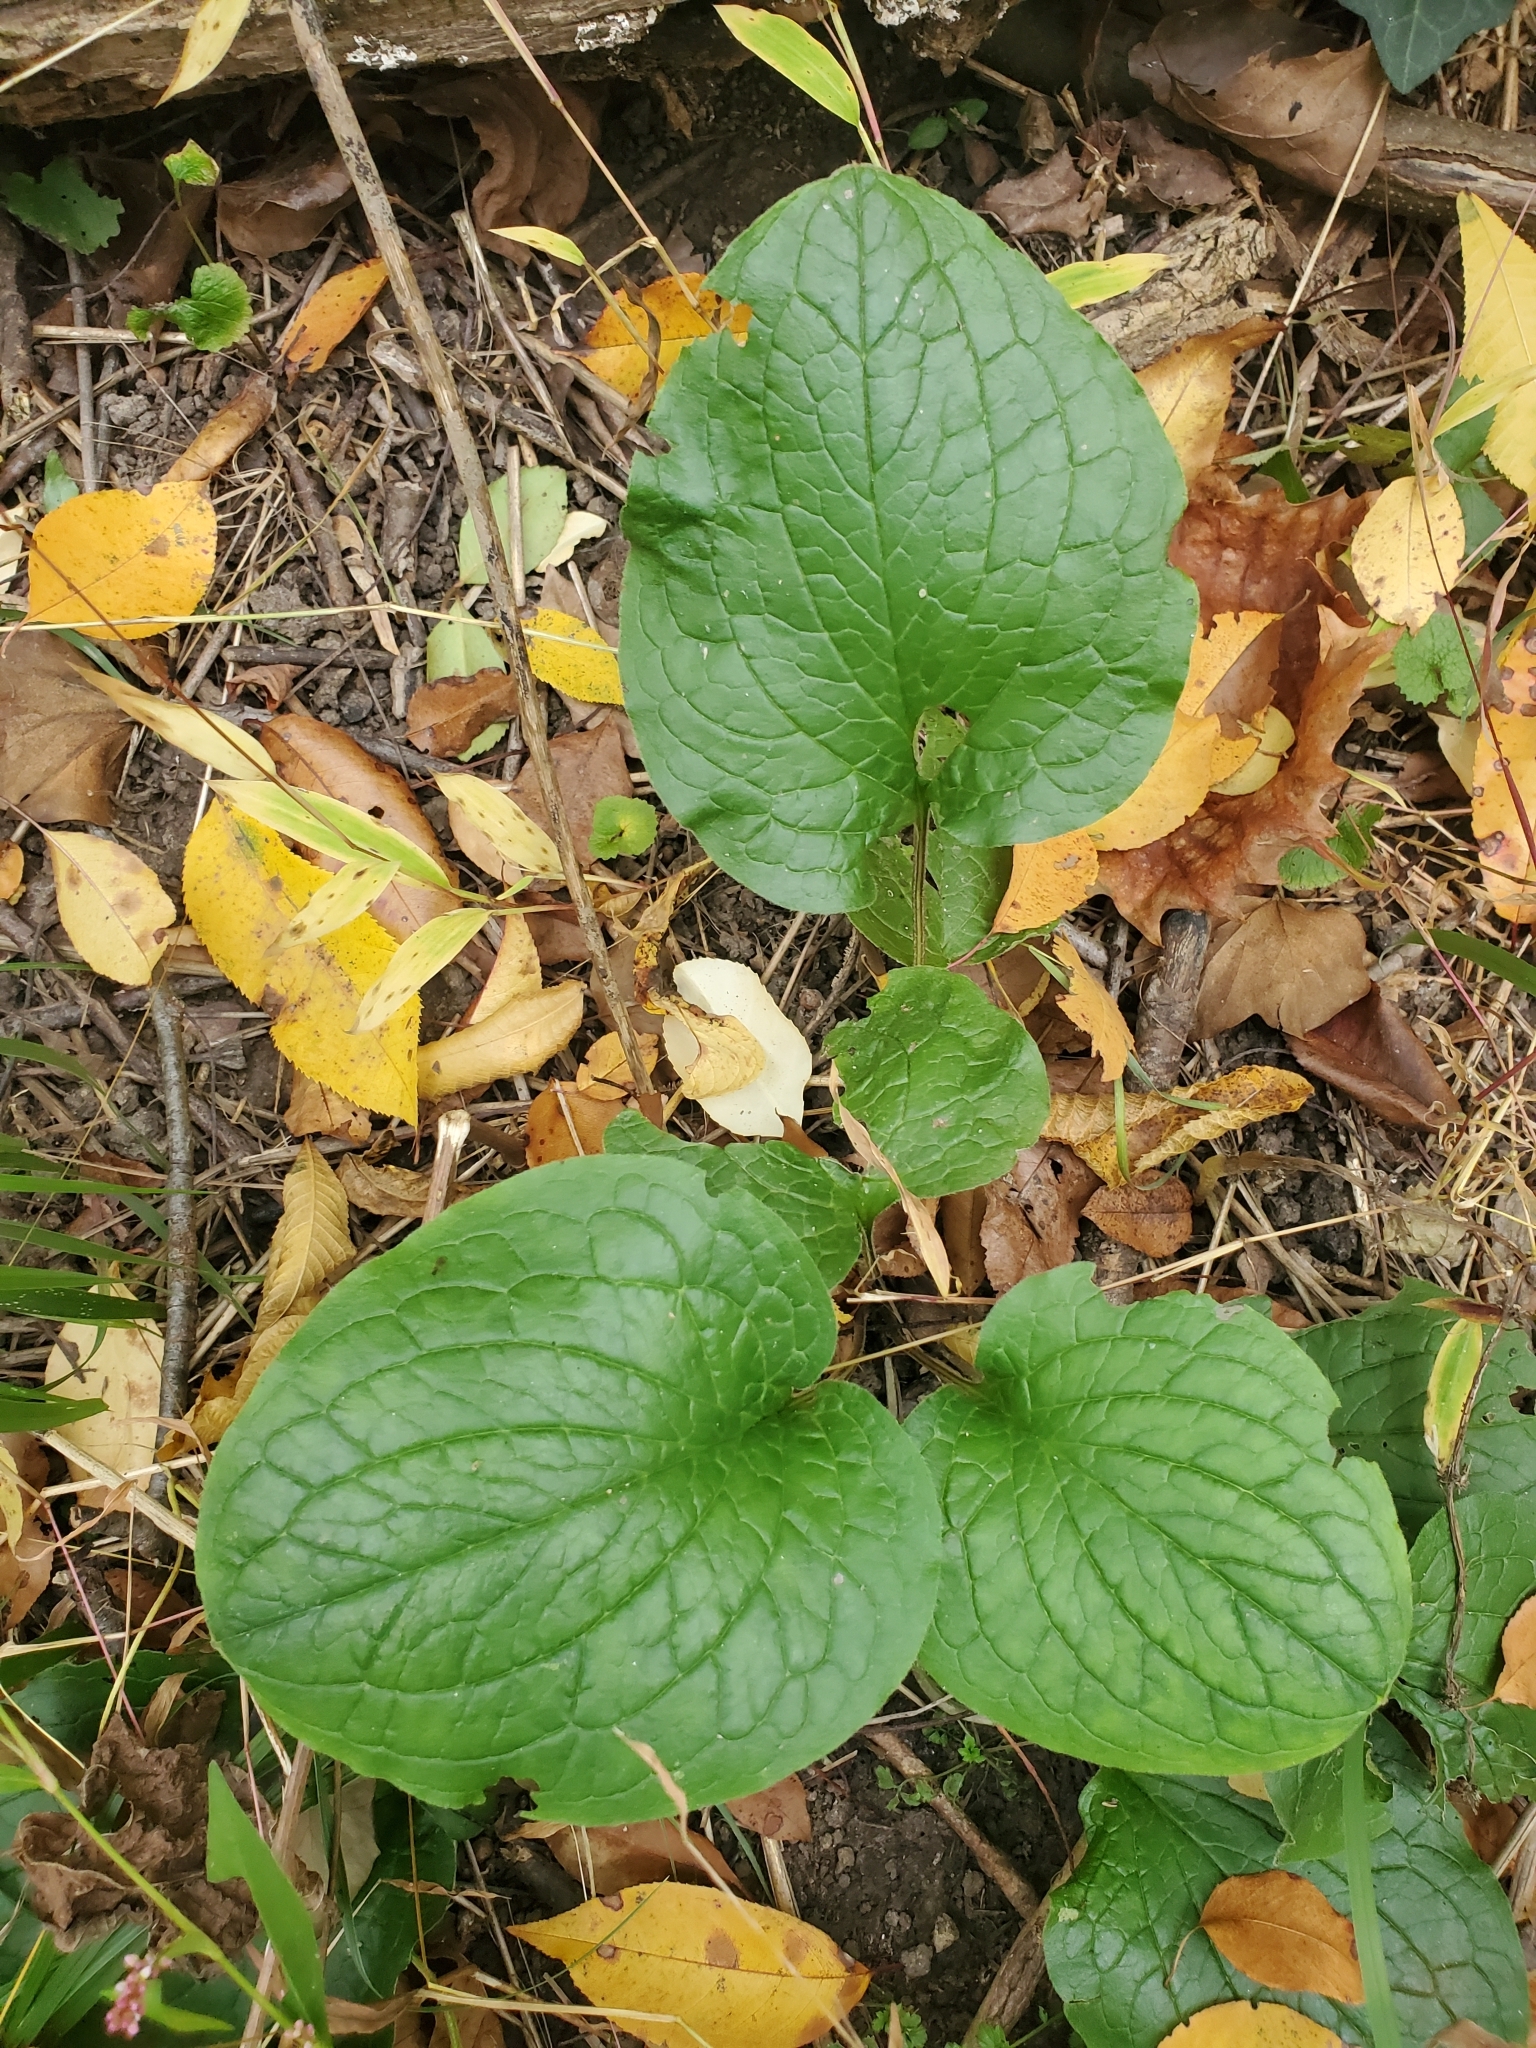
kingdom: Plantae
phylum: Tracheophyta
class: Magnoliopsida
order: Boraginales
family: Boraginaceae
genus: Hackelia
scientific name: Hackelia virginiana
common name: Beggar's-lice
